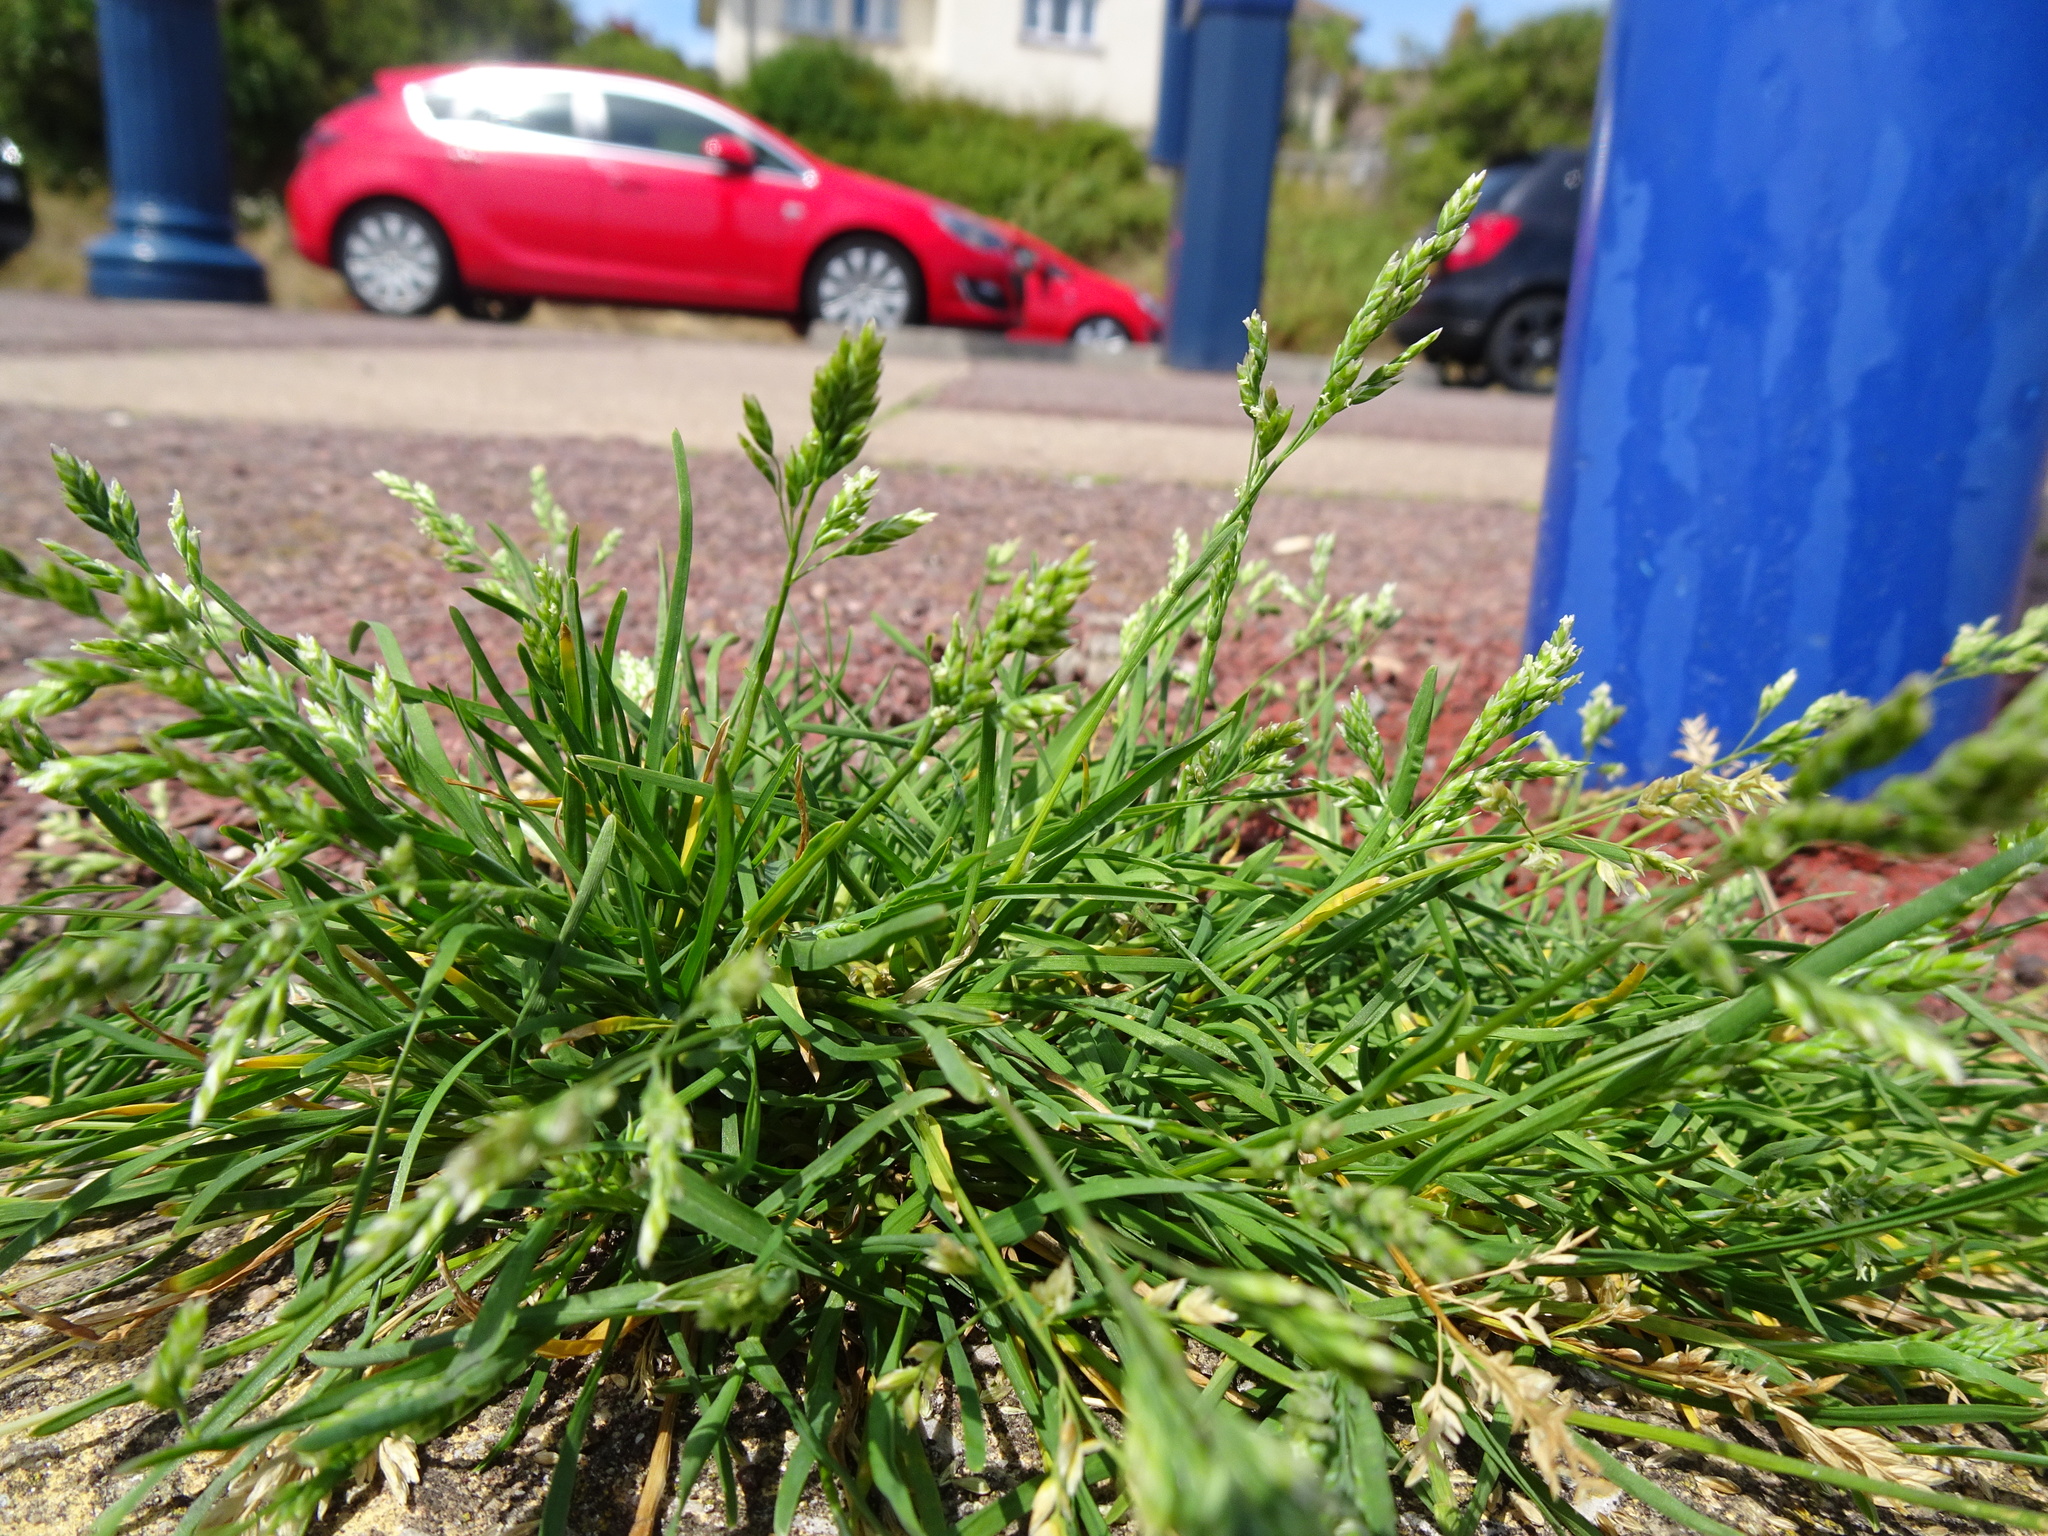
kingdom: Plantae
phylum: Tracheophyta
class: Liliopsida
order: Poales
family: Poaceae
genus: Poa
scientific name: Poa annua
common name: Annual bluegrass
